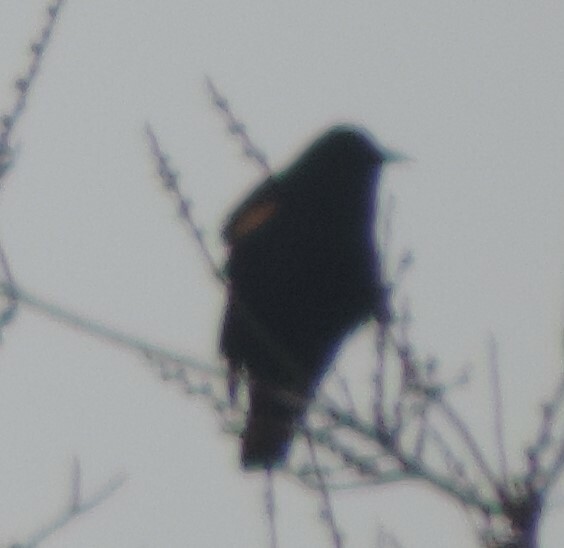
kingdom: Animalia
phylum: Chordata
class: Aves
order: Passeriformes
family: Icteridae
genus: Agelaius
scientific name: Agelaius phoeniceus
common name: Red-winged blackbird
